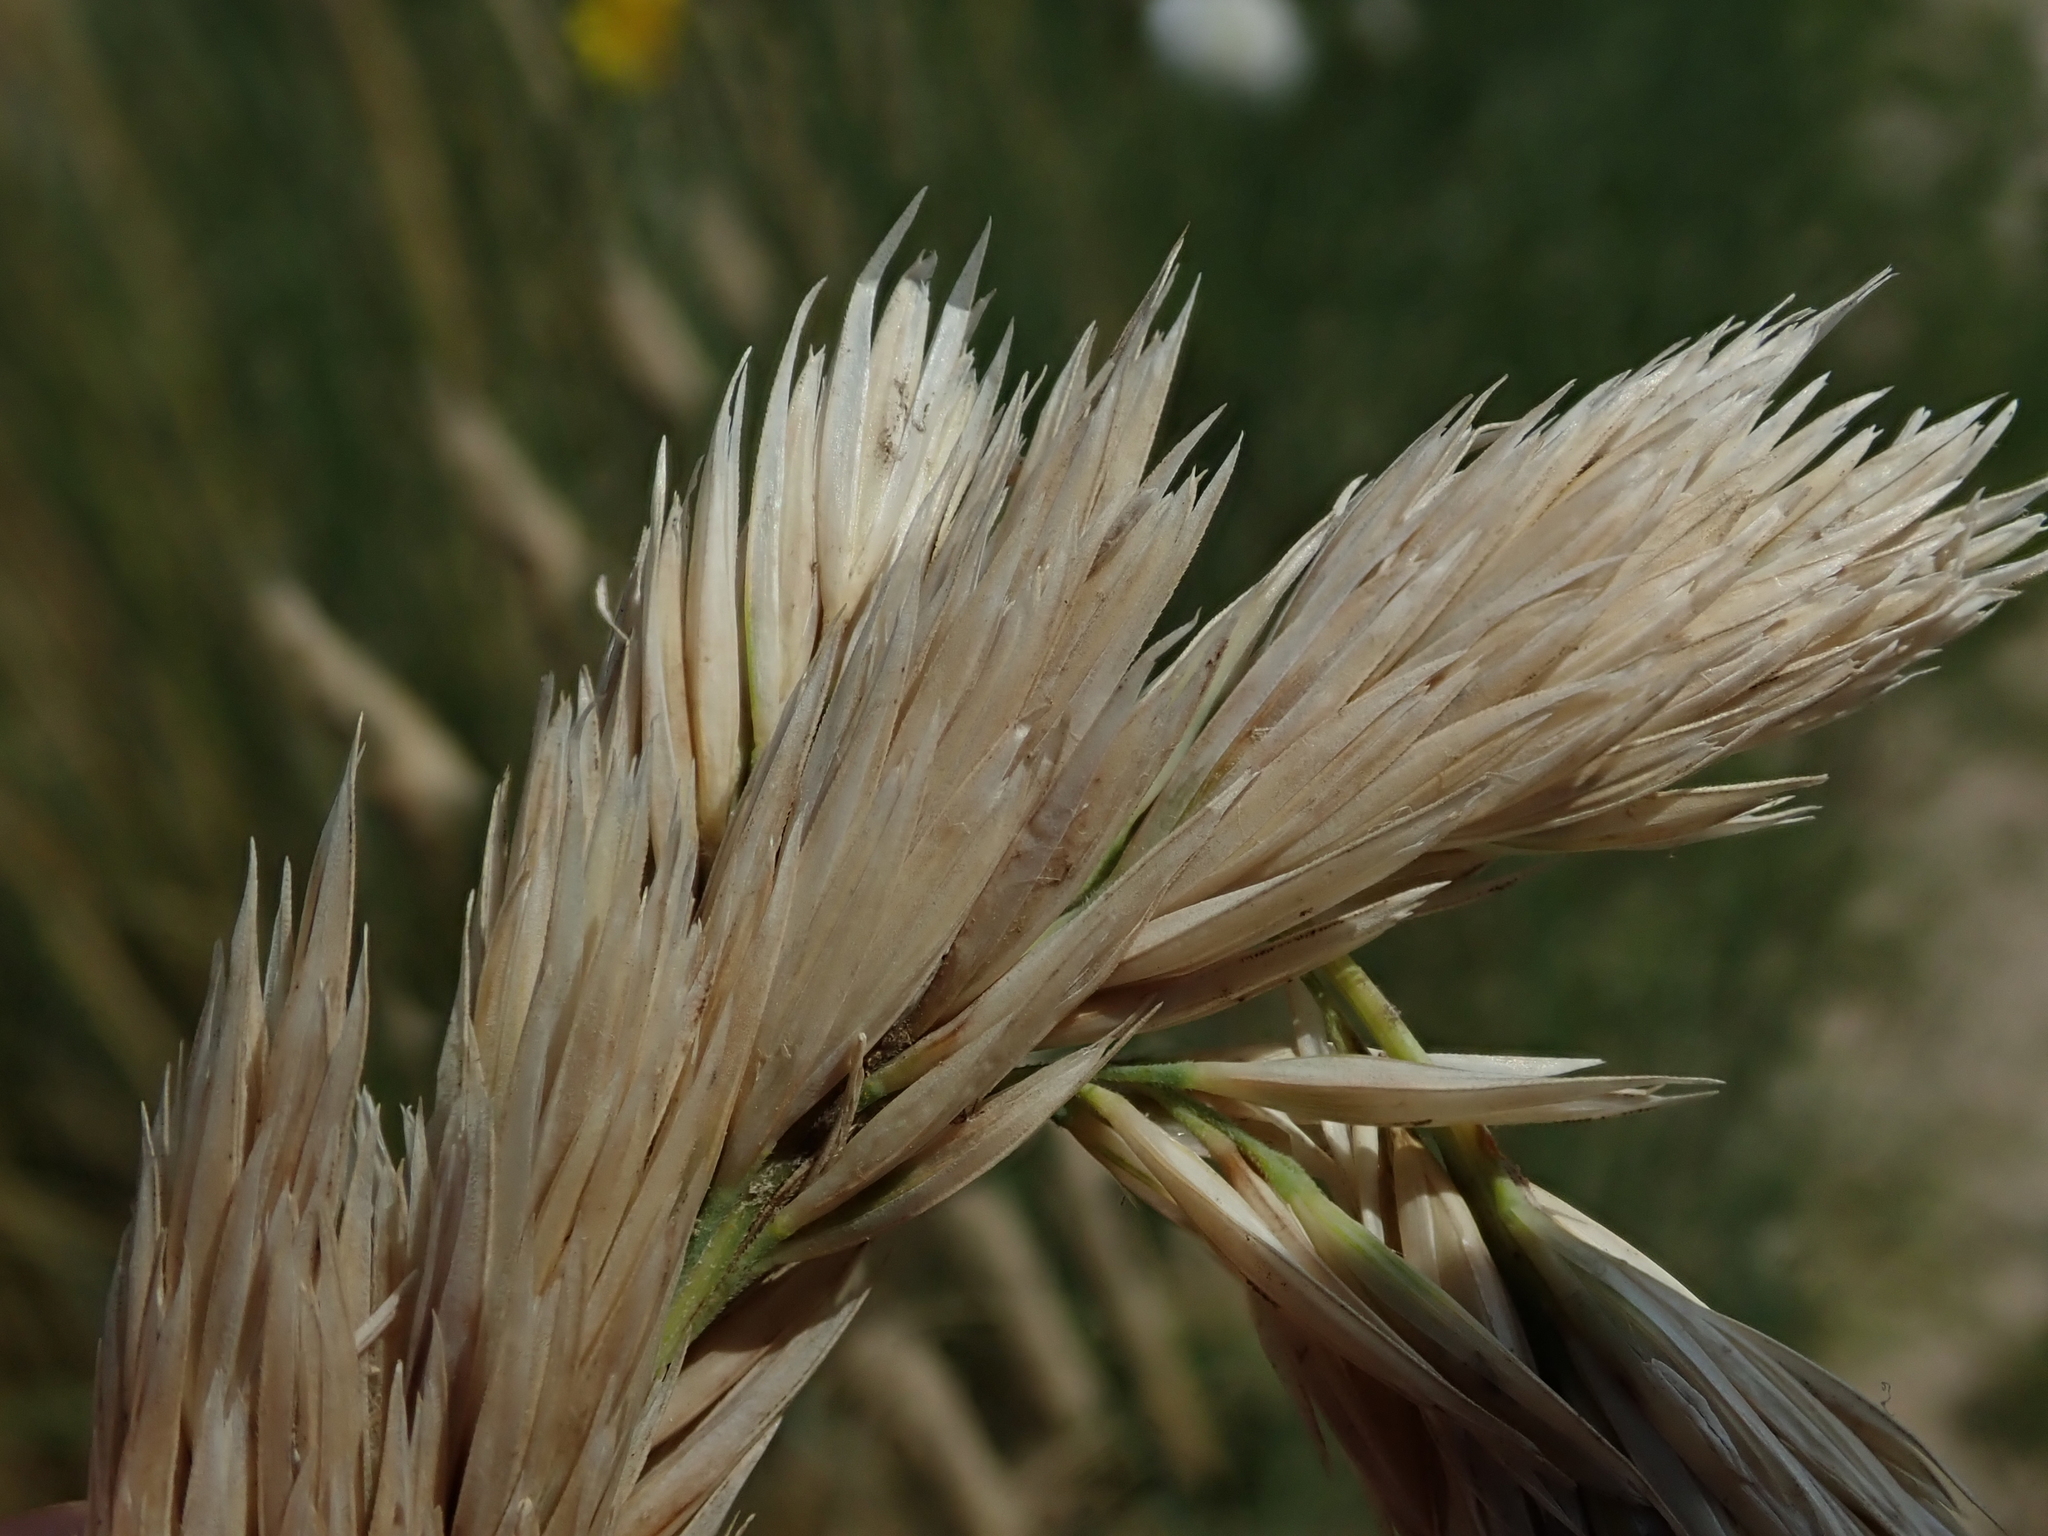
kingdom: Plantae
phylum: Tracheophyta
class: Liliopsida
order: Poales
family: Poaceae
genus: Calamagrostis
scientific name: Calamagrostis arenaria
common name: European beachgrass
